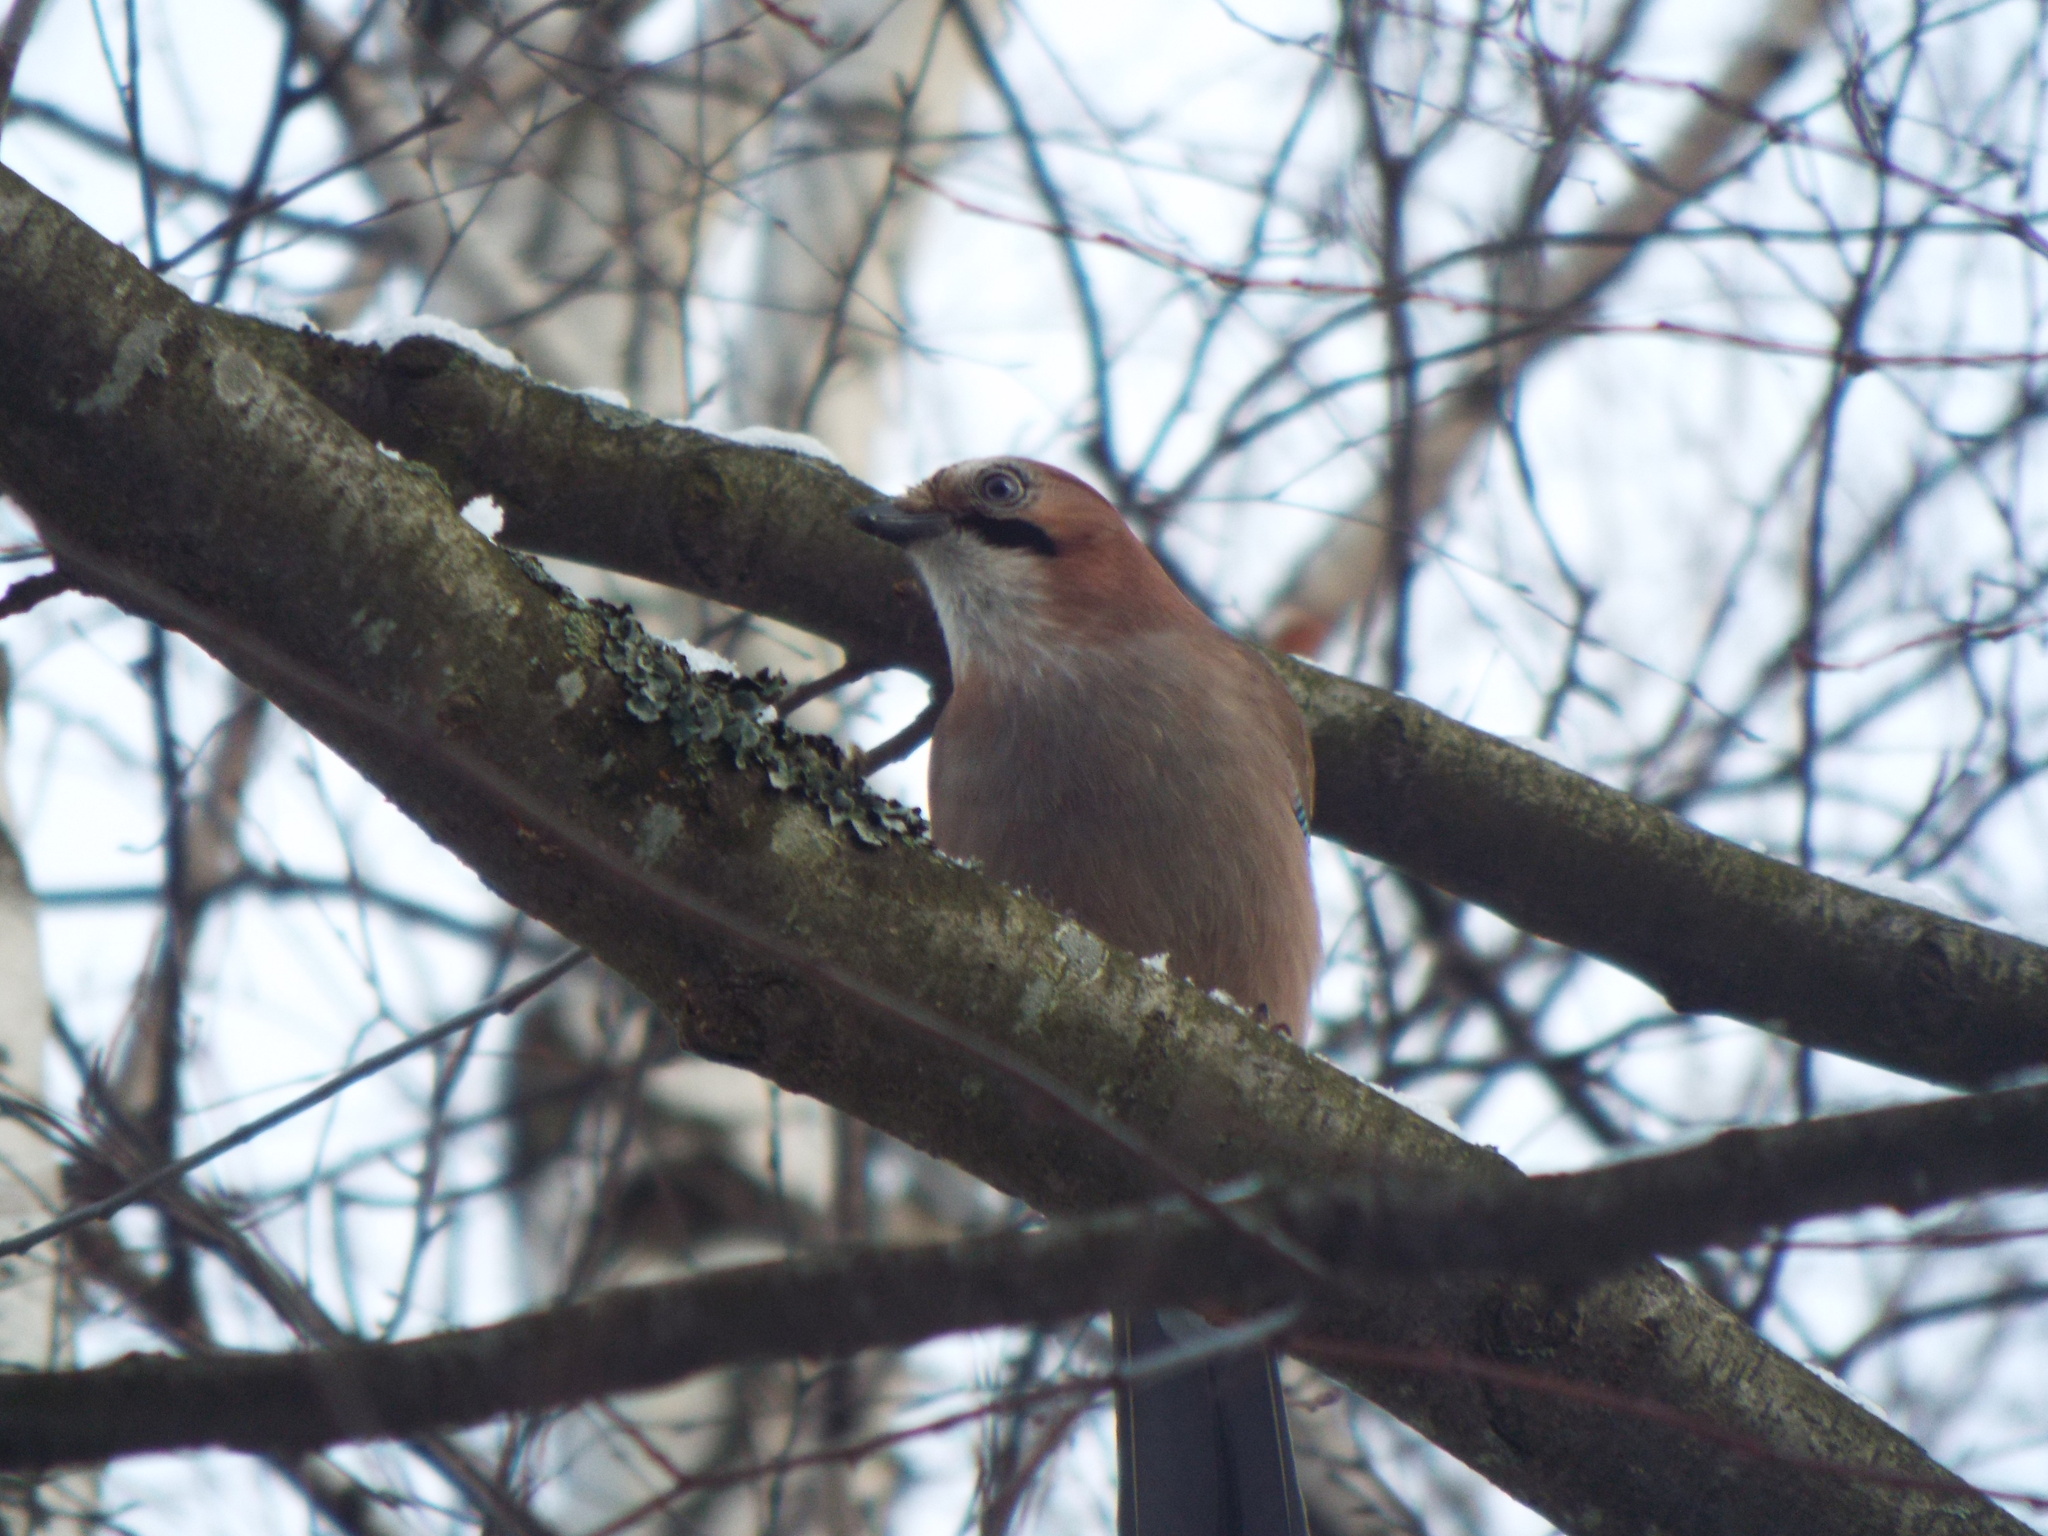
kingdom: Animalia
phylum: Chordata
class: Aves
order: Passeriformes
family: Corvidae
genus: Garrulus
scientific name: Garrulus glandarius
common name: Eurasian jay
